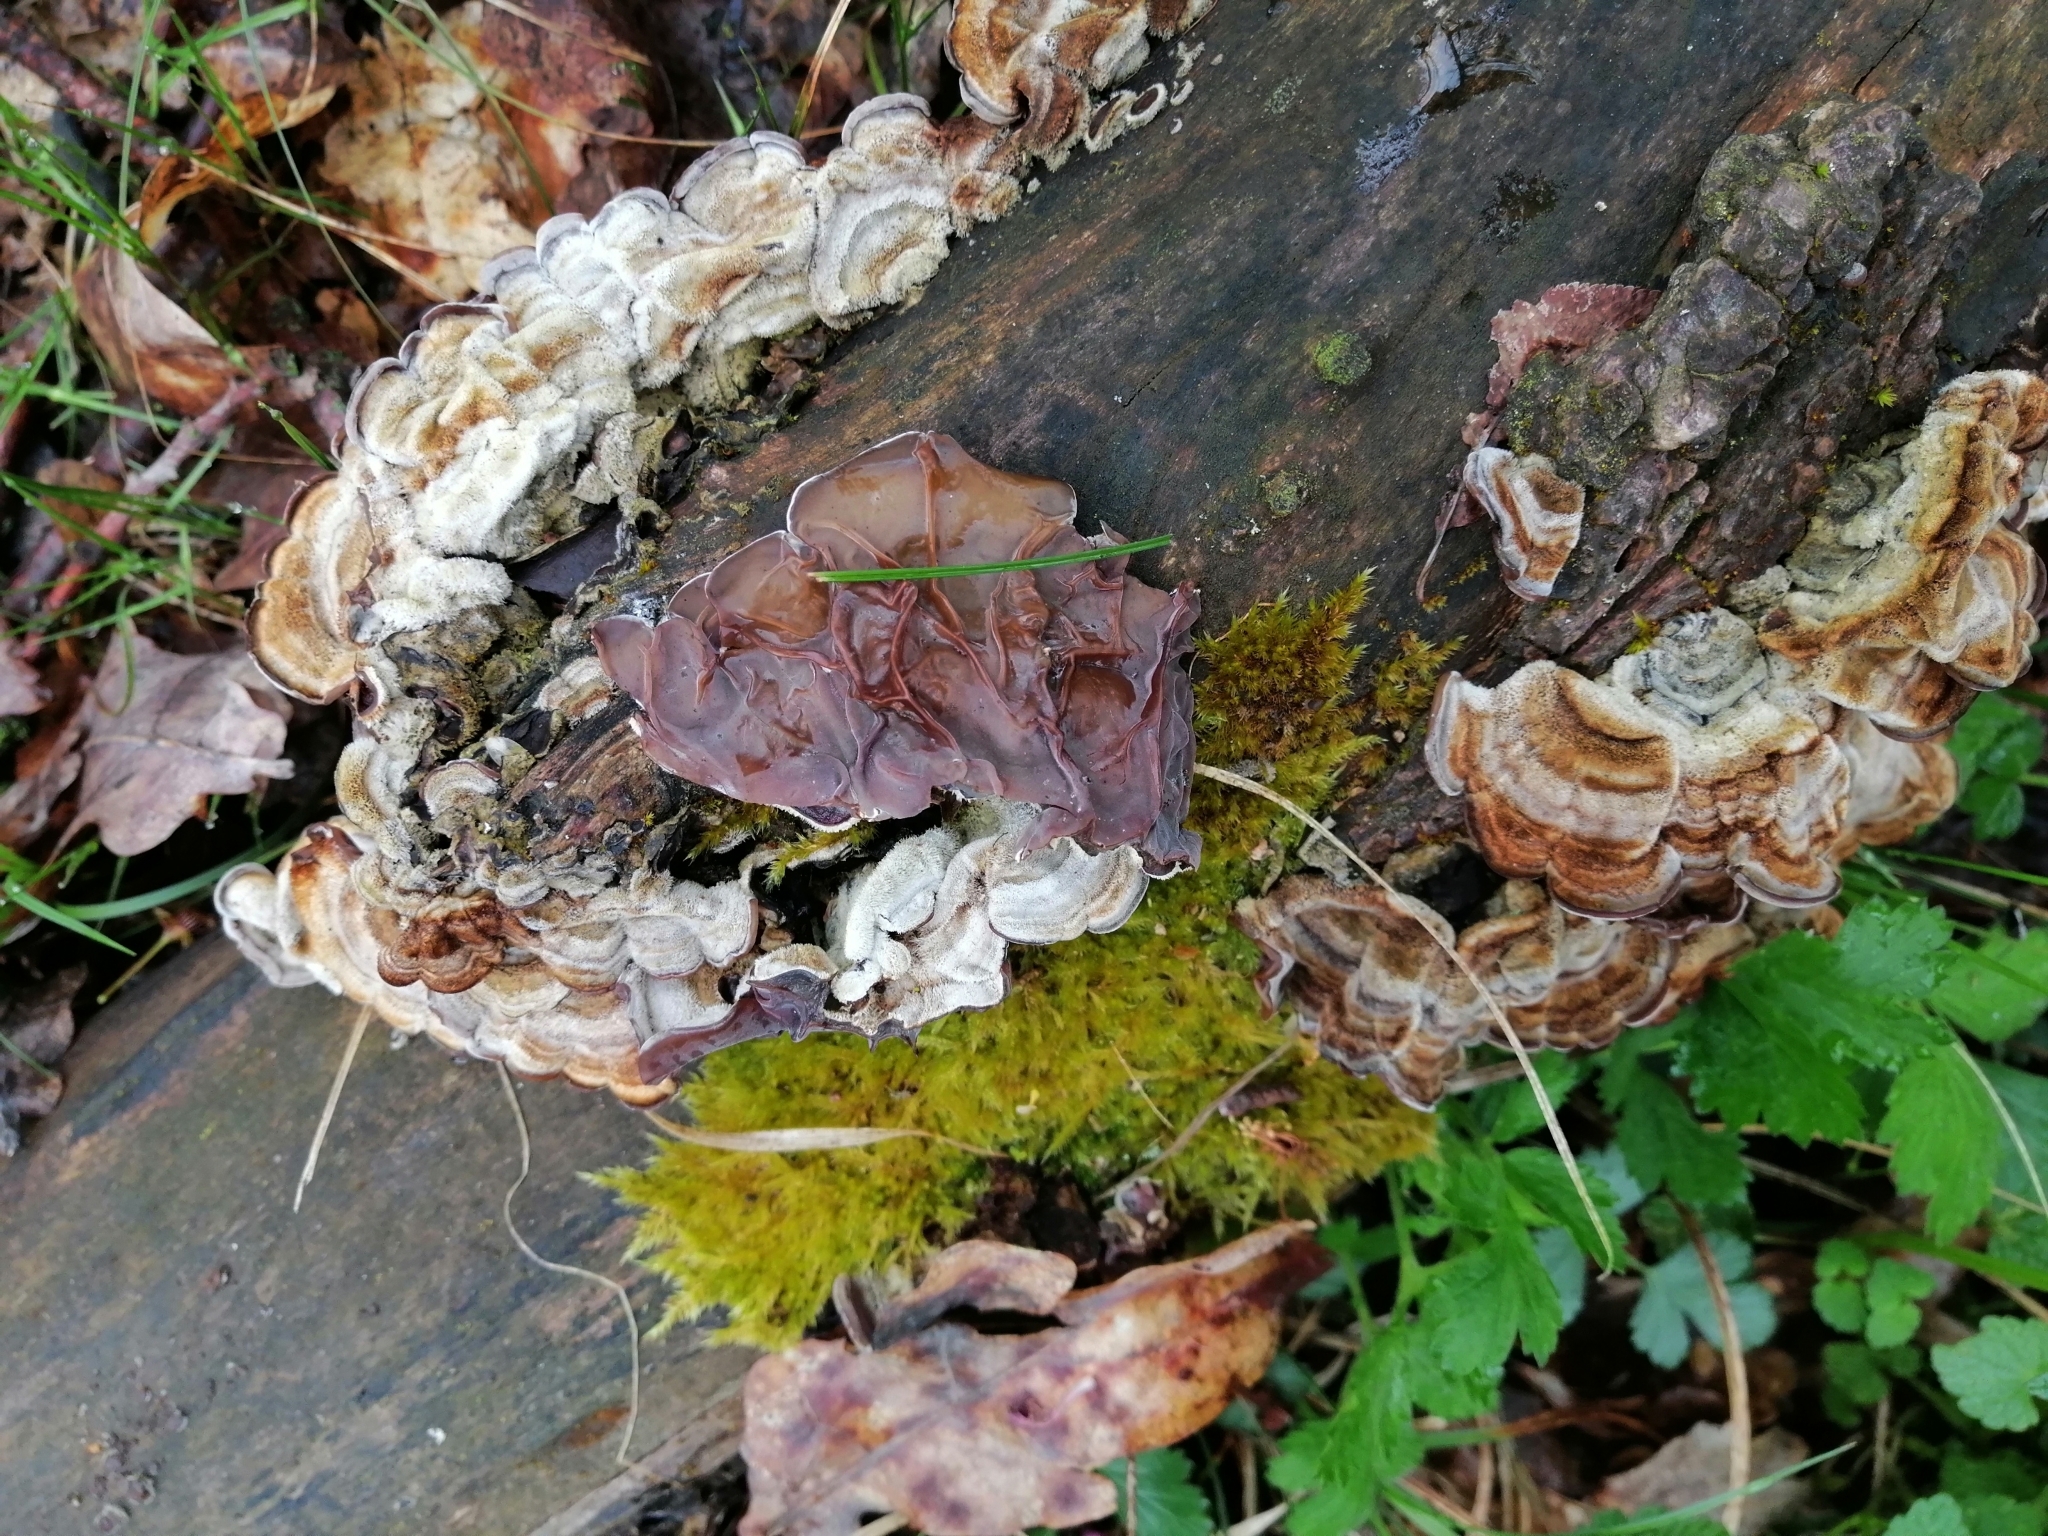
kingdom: Fungi
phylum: Basidiomycota
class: Agaricomycetes
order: Auriculariales
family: Auriculariaceae
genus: Auricularia
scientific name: Auricularia mesenterica
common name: Tripe fungus
